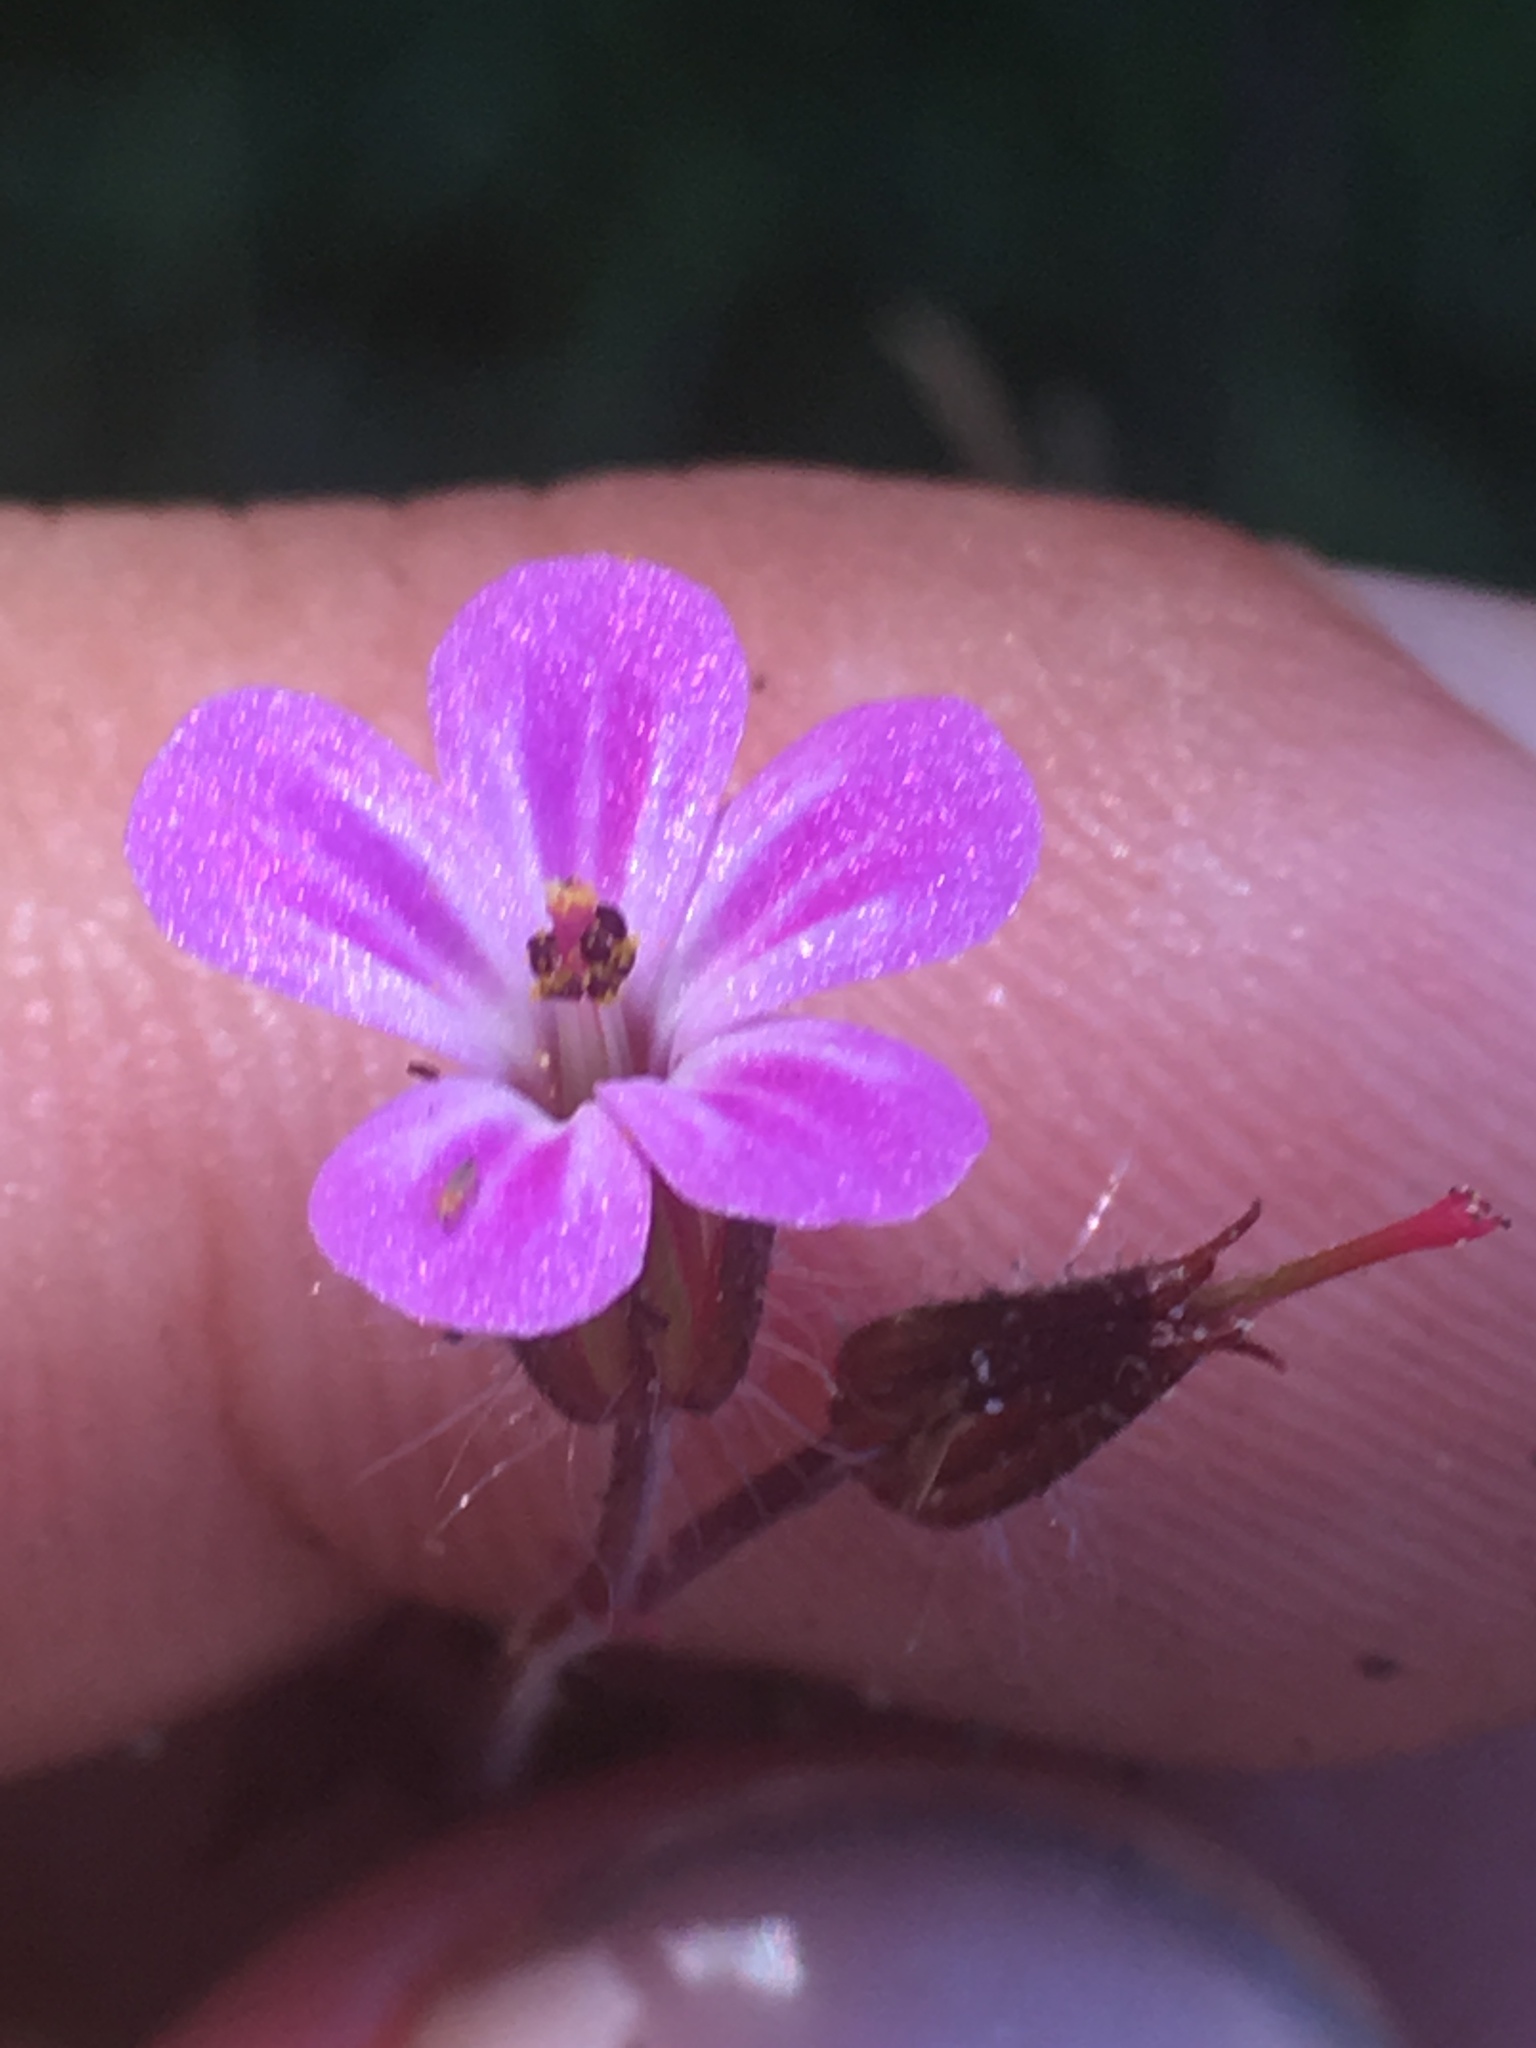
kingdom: Plantae
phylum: Tracheophyta
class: Magnoliopsida
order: Geraniales
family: Geraniaceae
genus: Geranium
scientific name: Geranium robertianum
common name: Herb-robert
